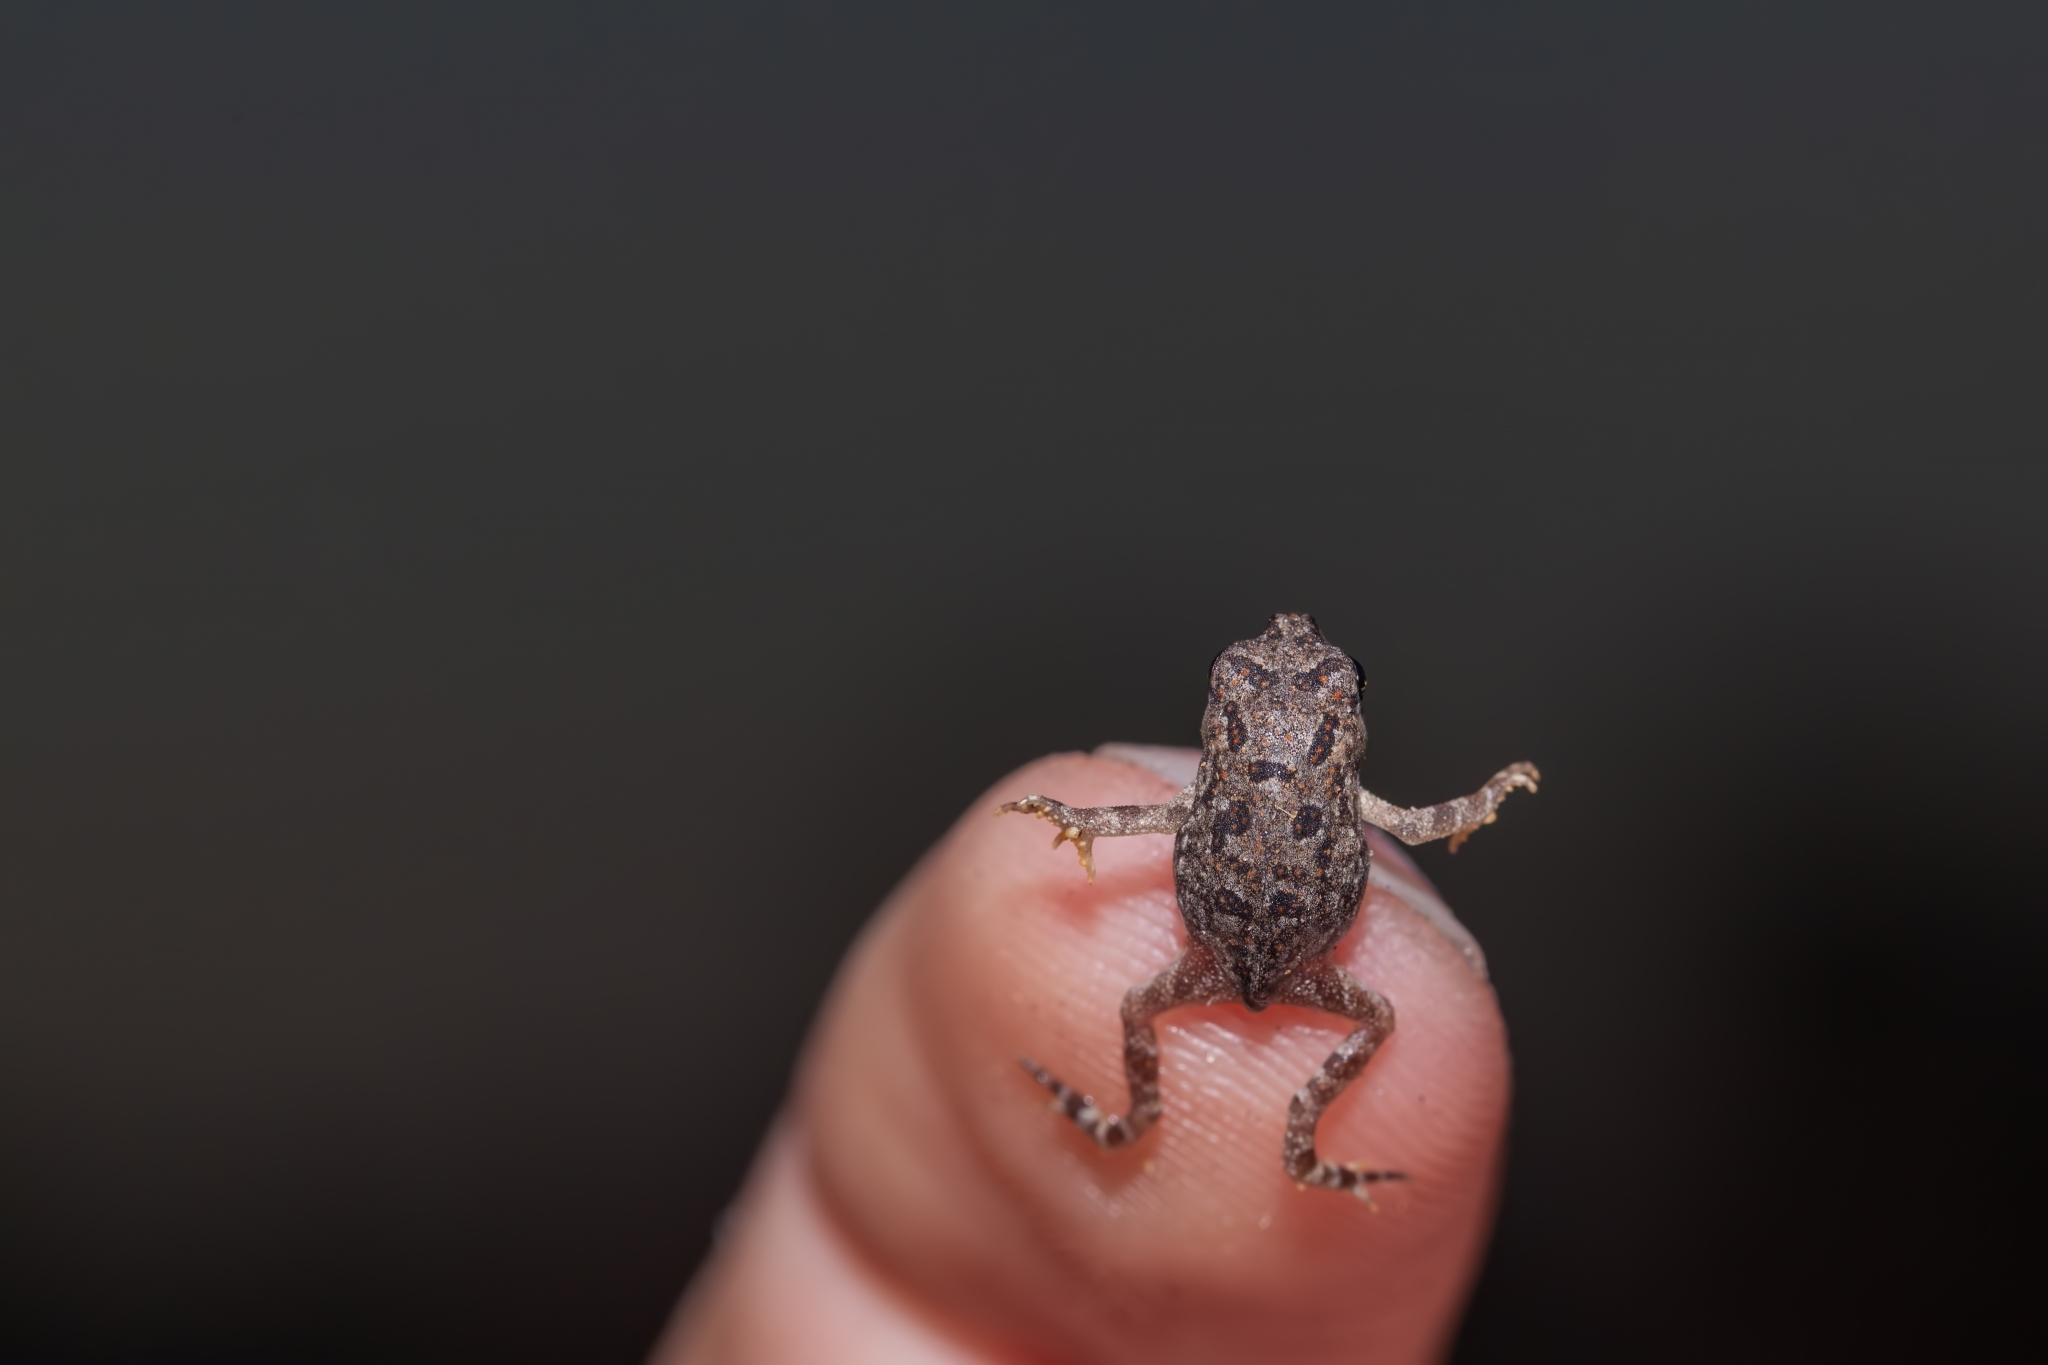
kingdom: Animalia
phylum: Chordata
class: Amphibia
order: Anura
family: Bufonidae
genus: Anaxyrus
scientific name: Anaxyrus terrestris
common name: Southern toad
